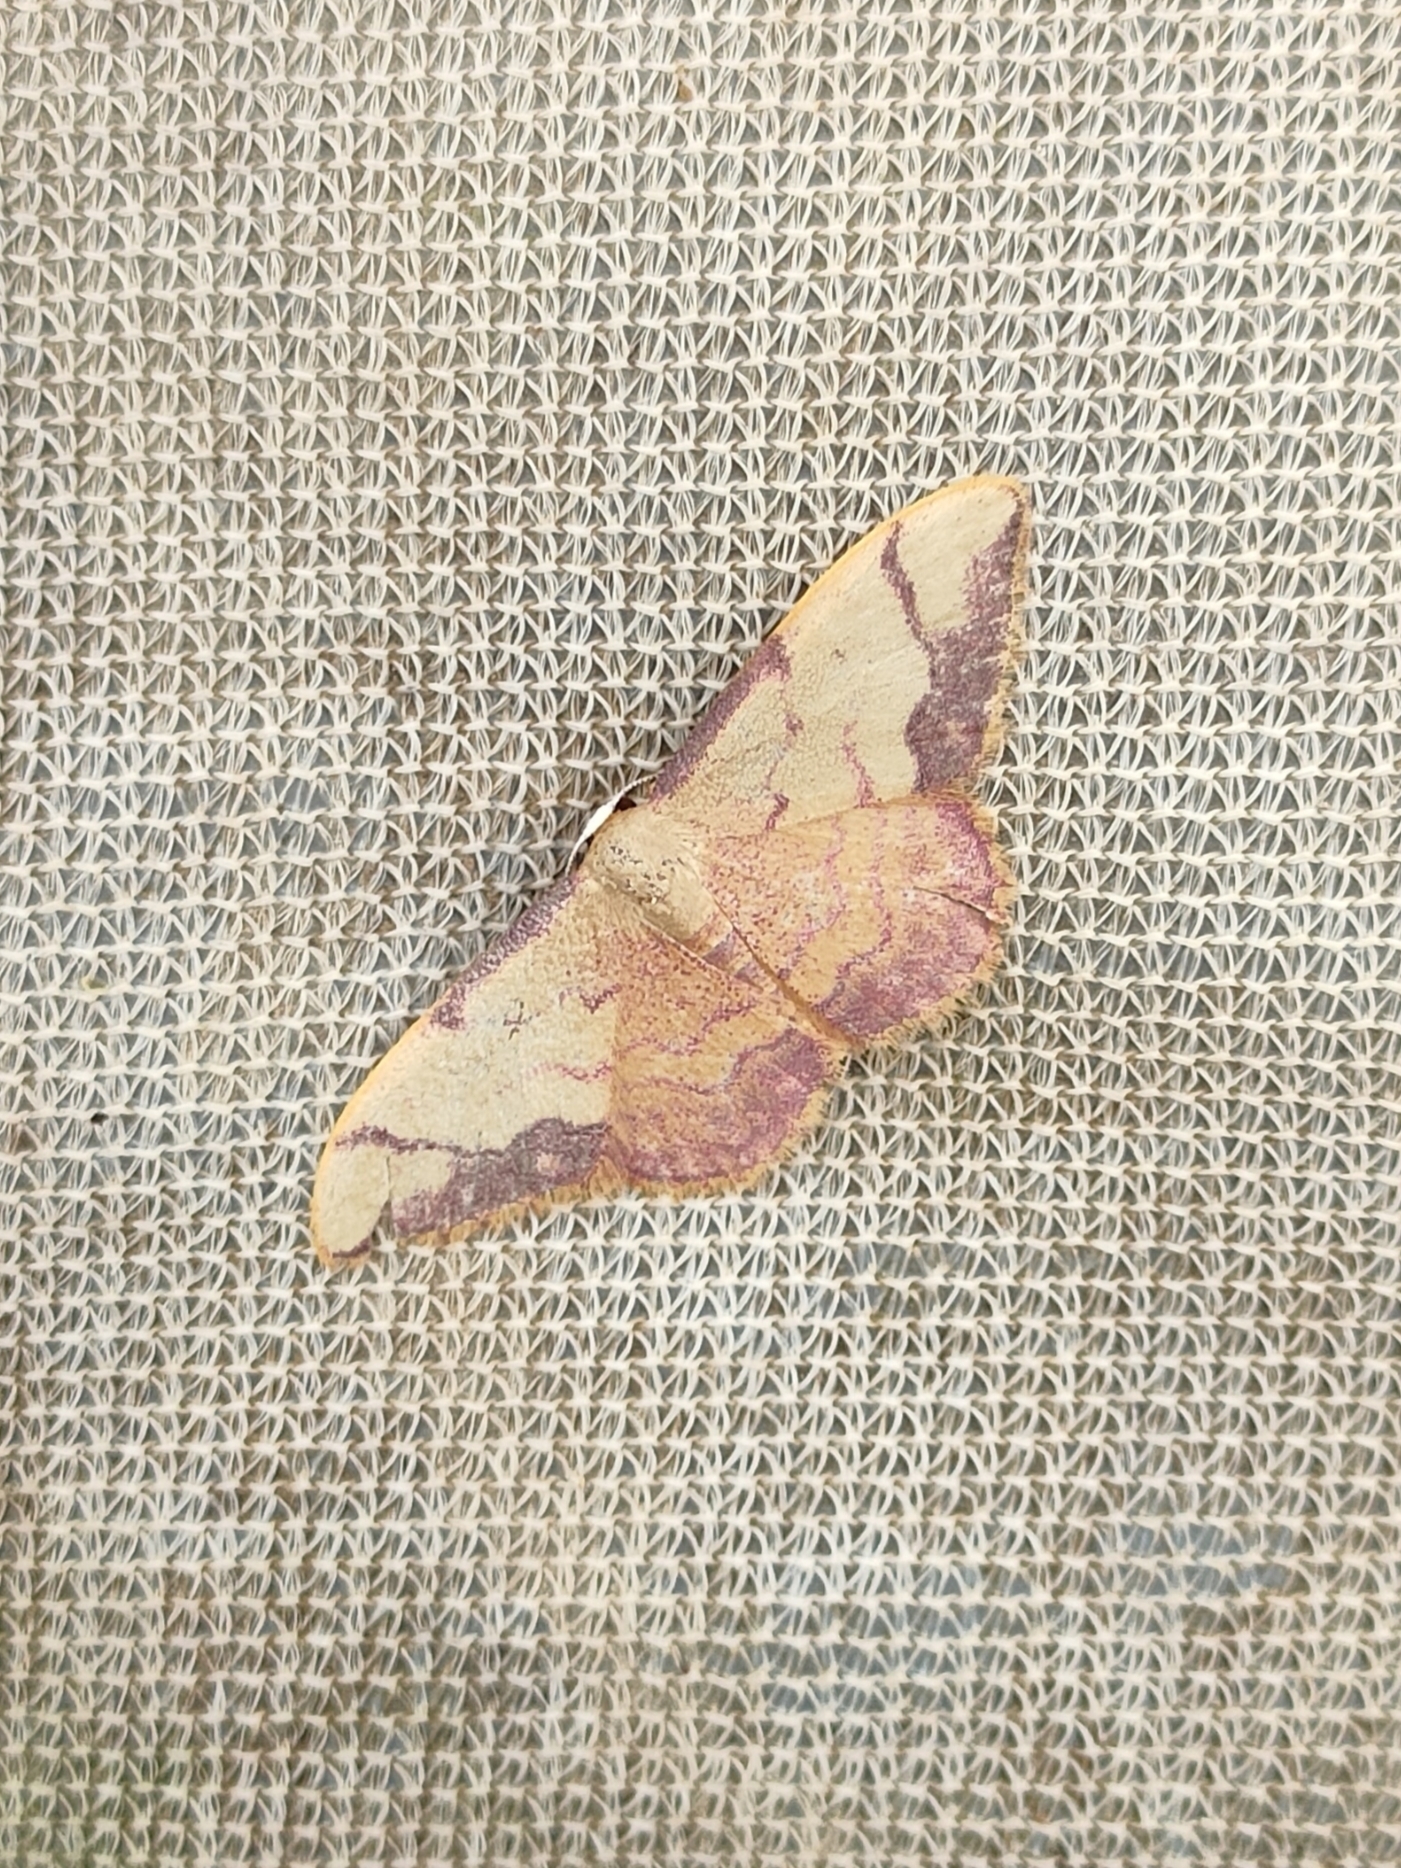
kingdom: Animalia
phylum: Arthropoda
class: Insecta
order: Lepidoptera
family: Geometridae
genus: Idaea
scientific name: Idaea ostrinaria
